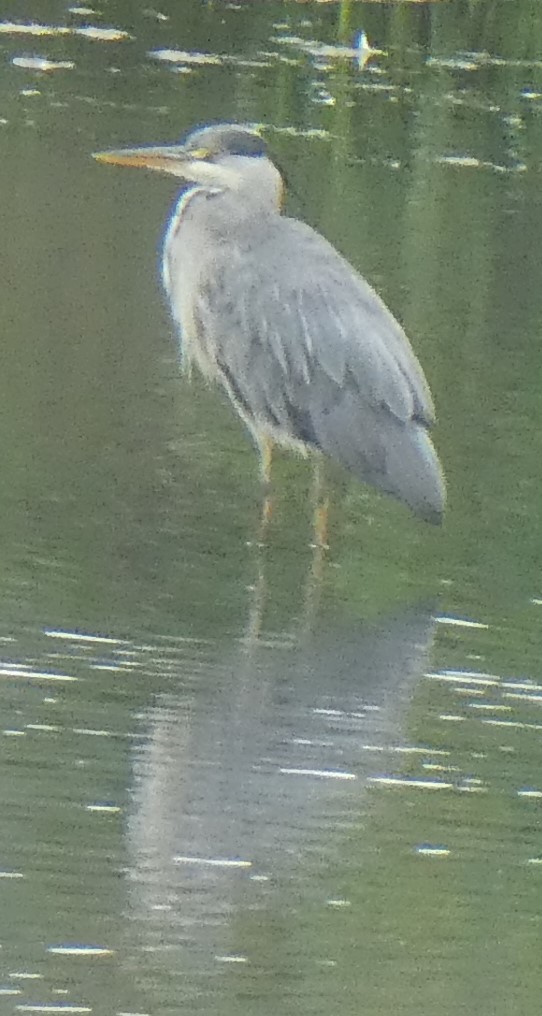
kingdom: Animalia
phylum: Chordata
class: Aves
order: Pelecaniformes
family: Ardeidae
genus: Ardea
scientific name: Ardea cinerea
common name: Grey heron
